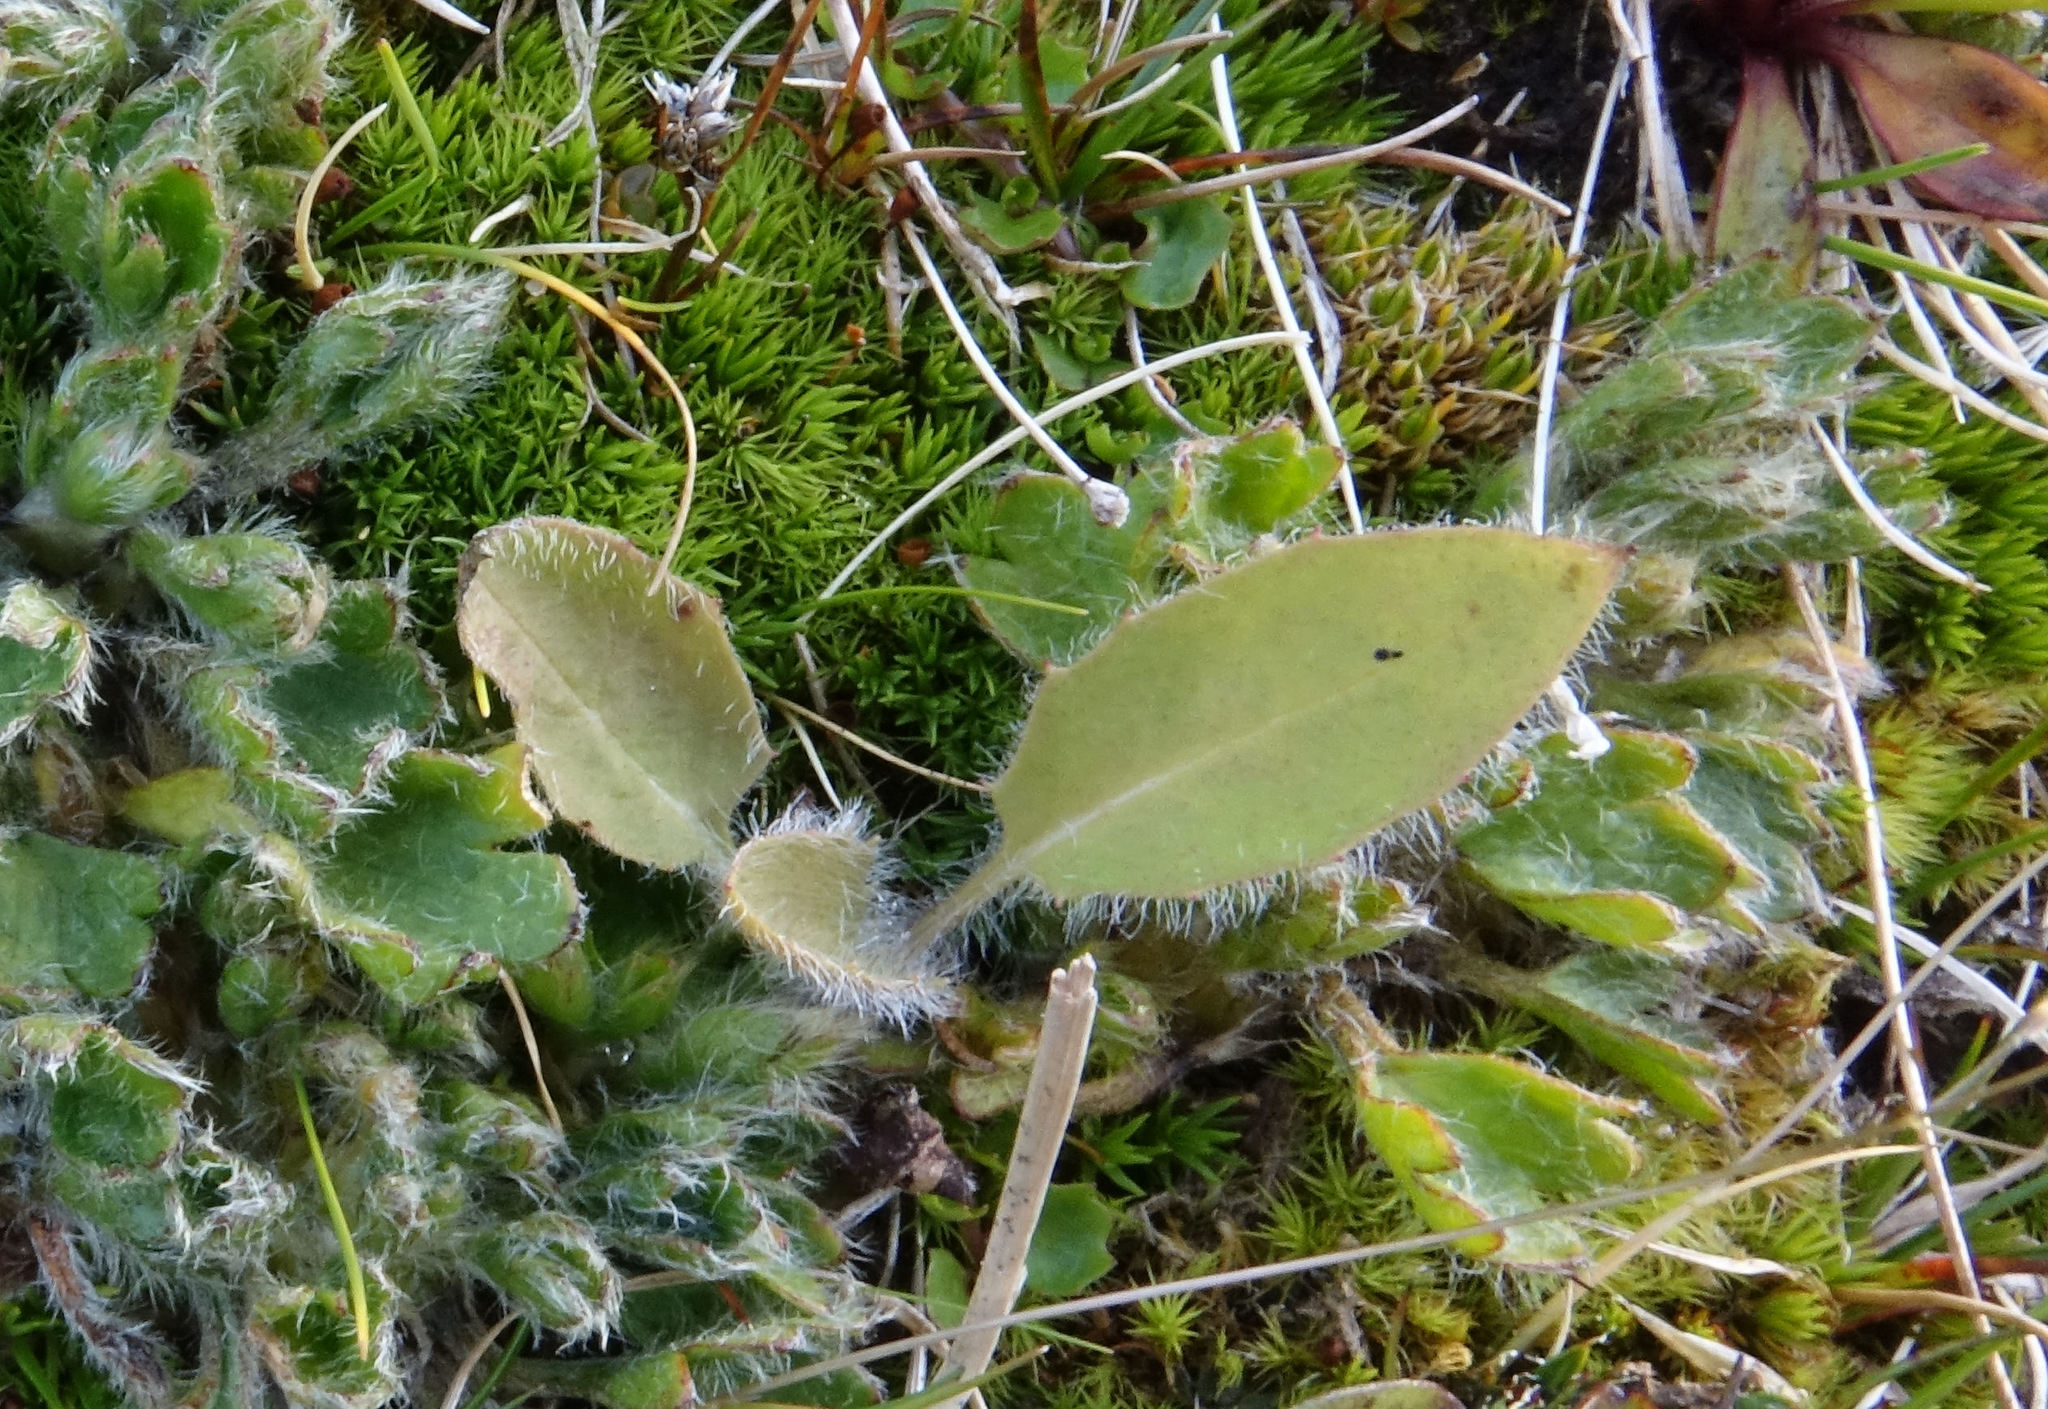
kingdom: Plantae
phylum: Tracheophyta
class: Magnoliopsida
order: Asterales
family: Asteraceae
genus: Hieracium
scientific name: Hieracium lepidulum
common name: Irregular-toothed hawkweed
